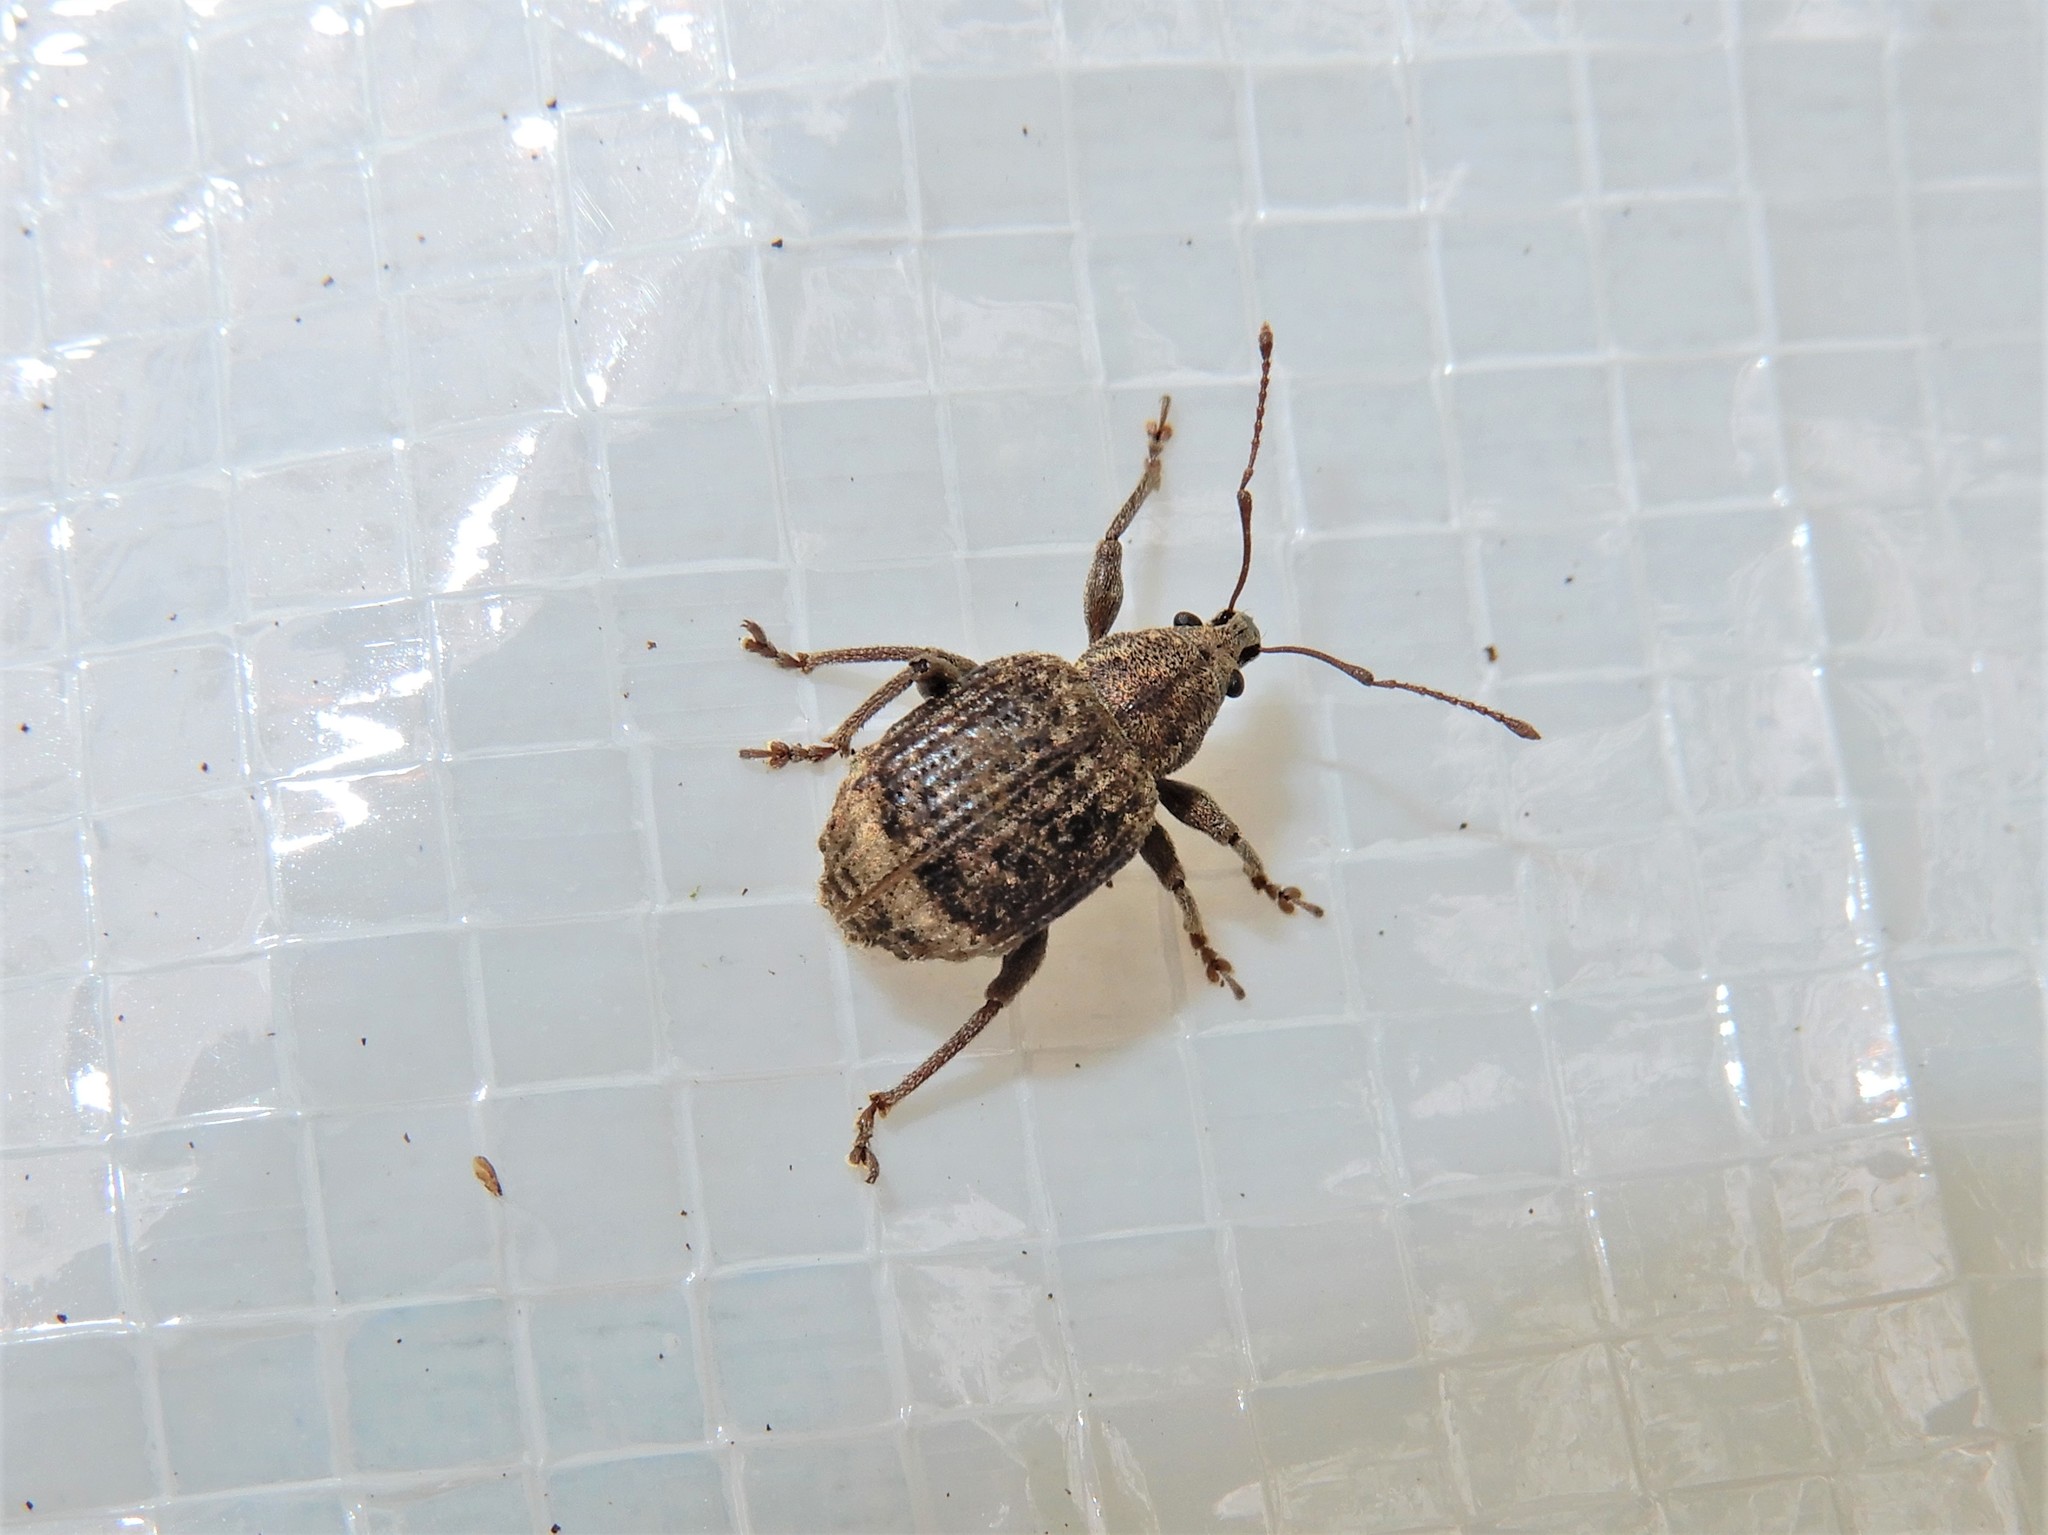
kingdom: Animalia
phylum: Arthropoda
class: Insecta
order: Coleoptera
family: Curculionidae
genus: Phlyctinus
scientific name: Phlyctinus callosus
